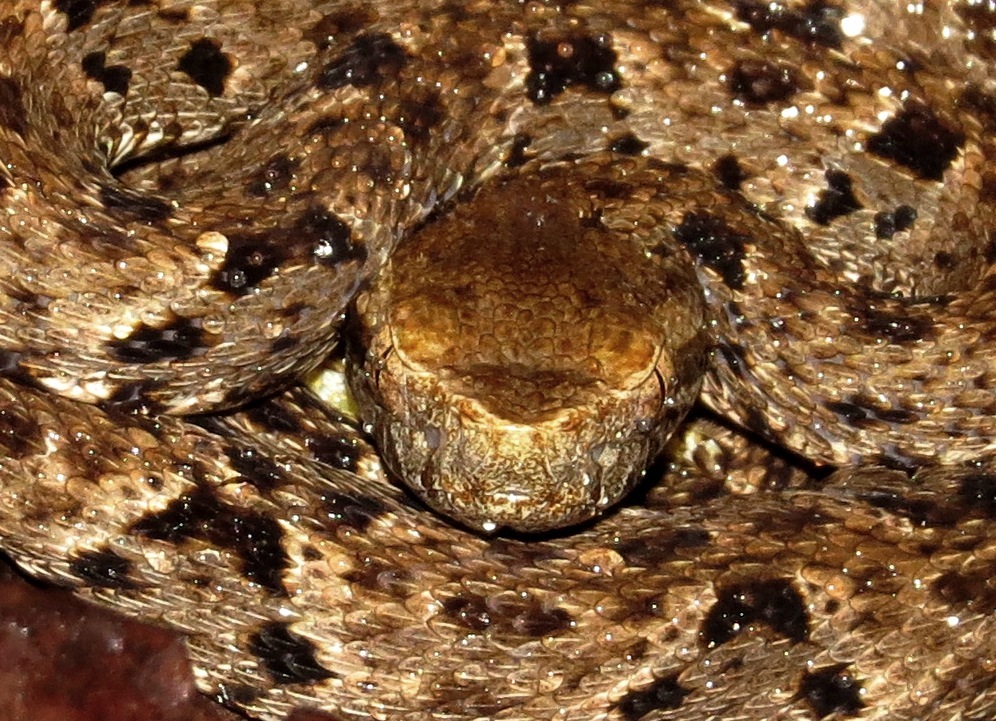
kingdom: Animalia
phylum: Chordata
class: Squamata
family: Viperidae
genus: Bothrops
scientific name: Bothrops atrox
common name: Common lancehead
